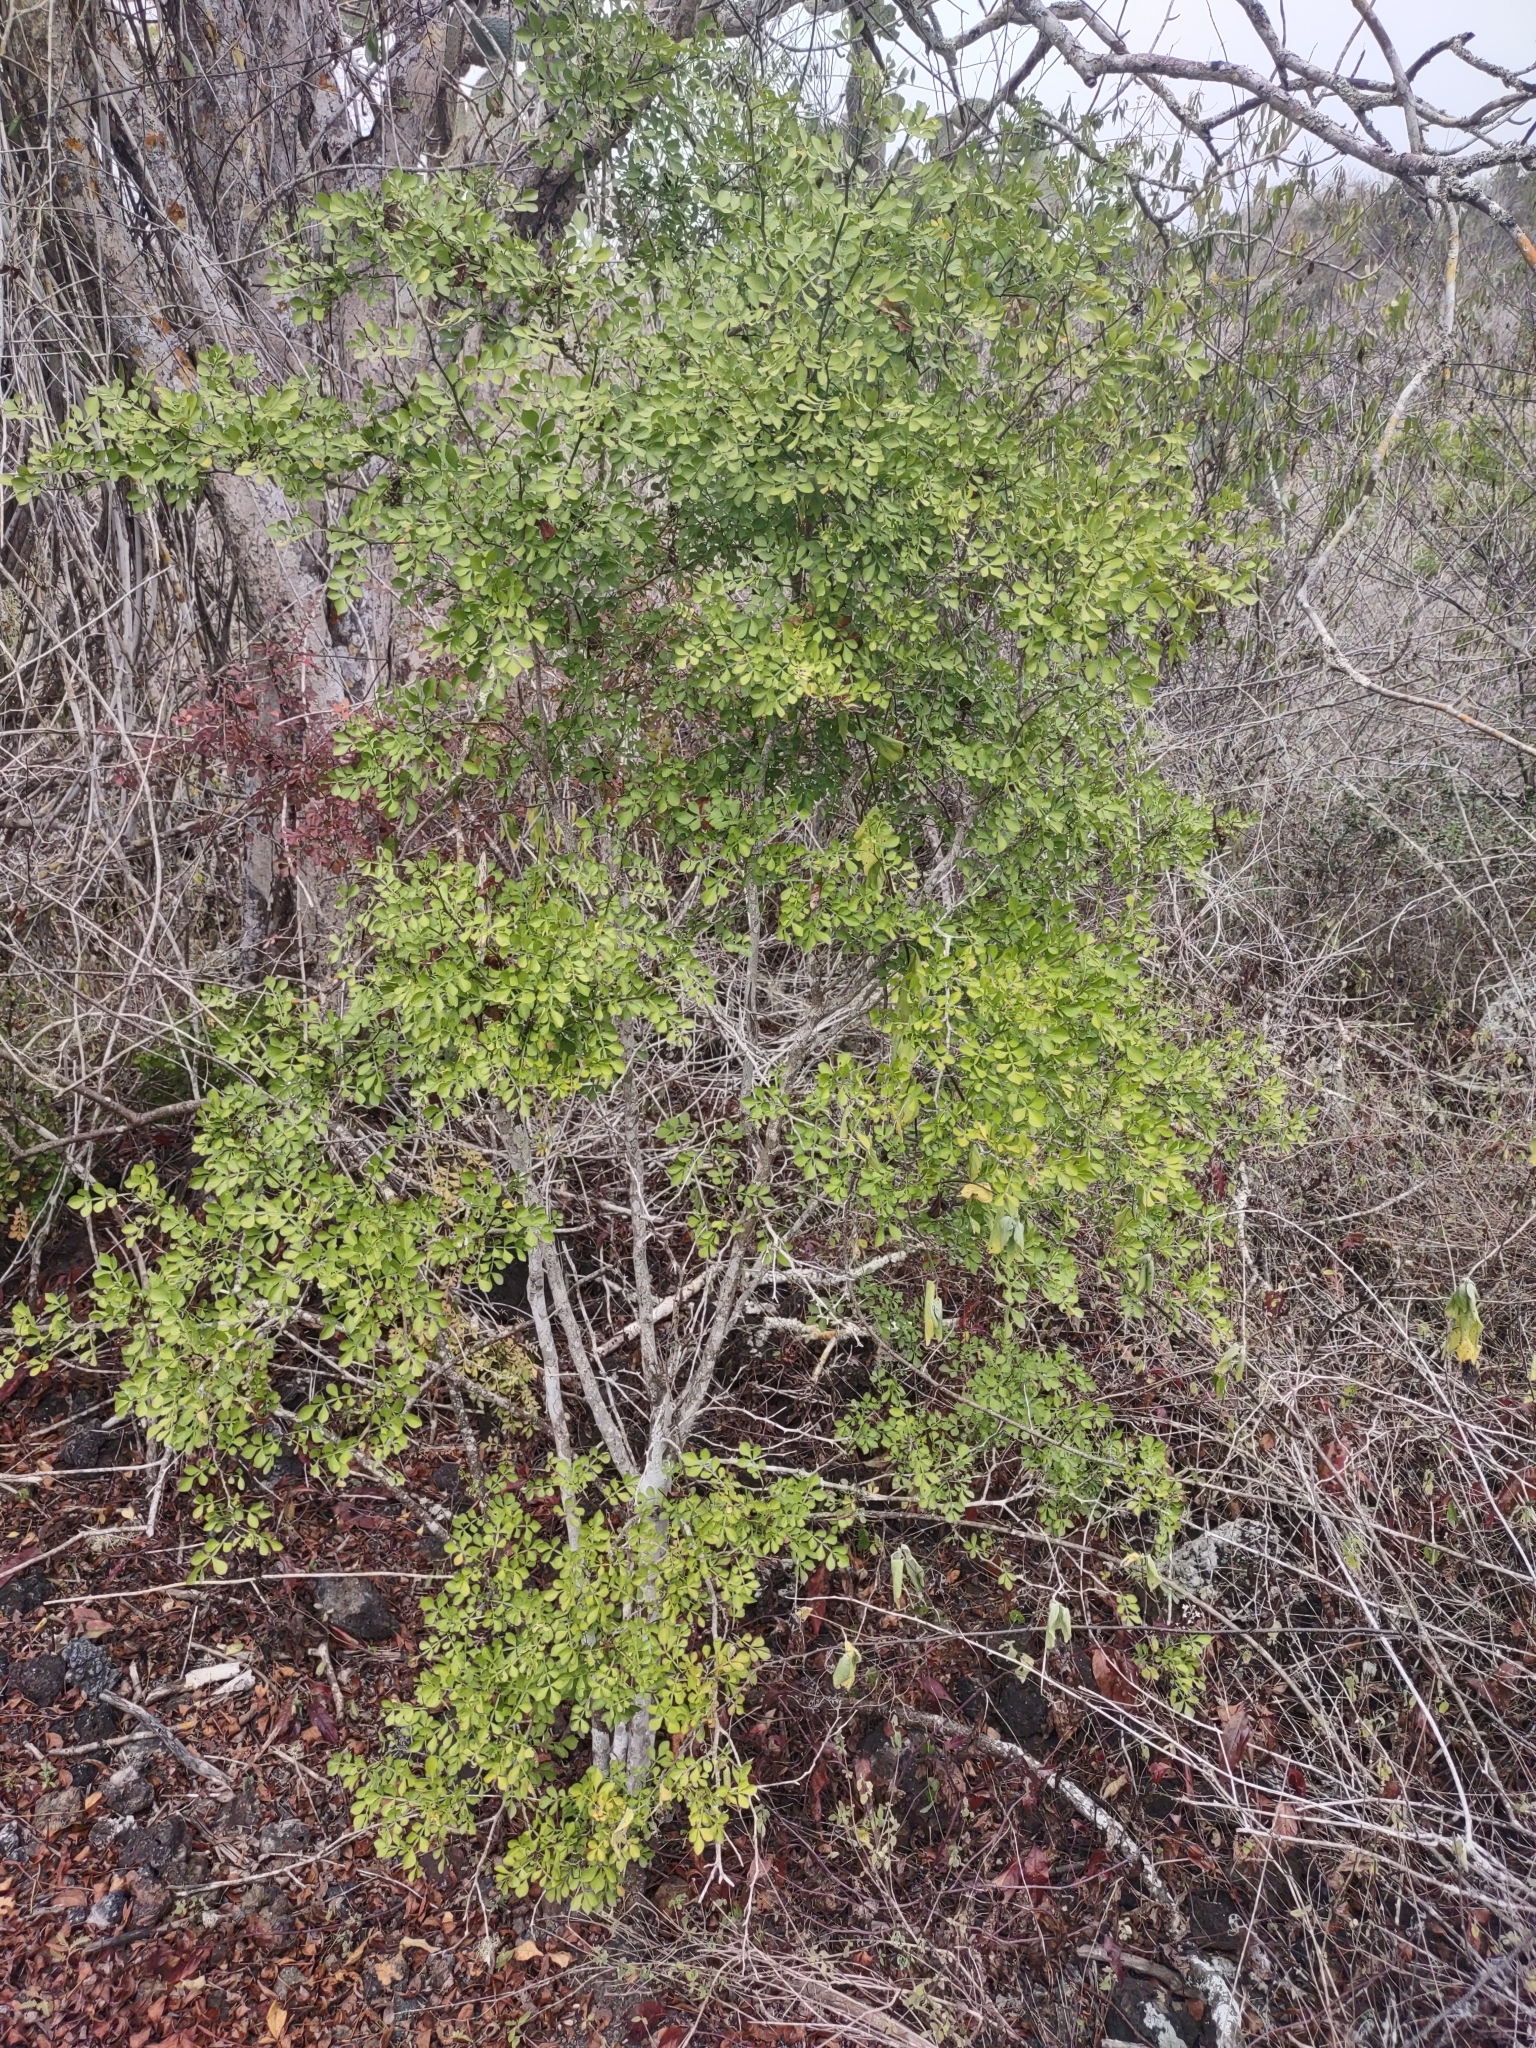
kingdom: Plantae
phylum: Tracheophyta
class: Magnoliopsida
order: Sapindales
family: Rutaceae
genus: Zanthoxylum
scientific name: Zanthoxylum fagara
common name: Lime prickly-ash
